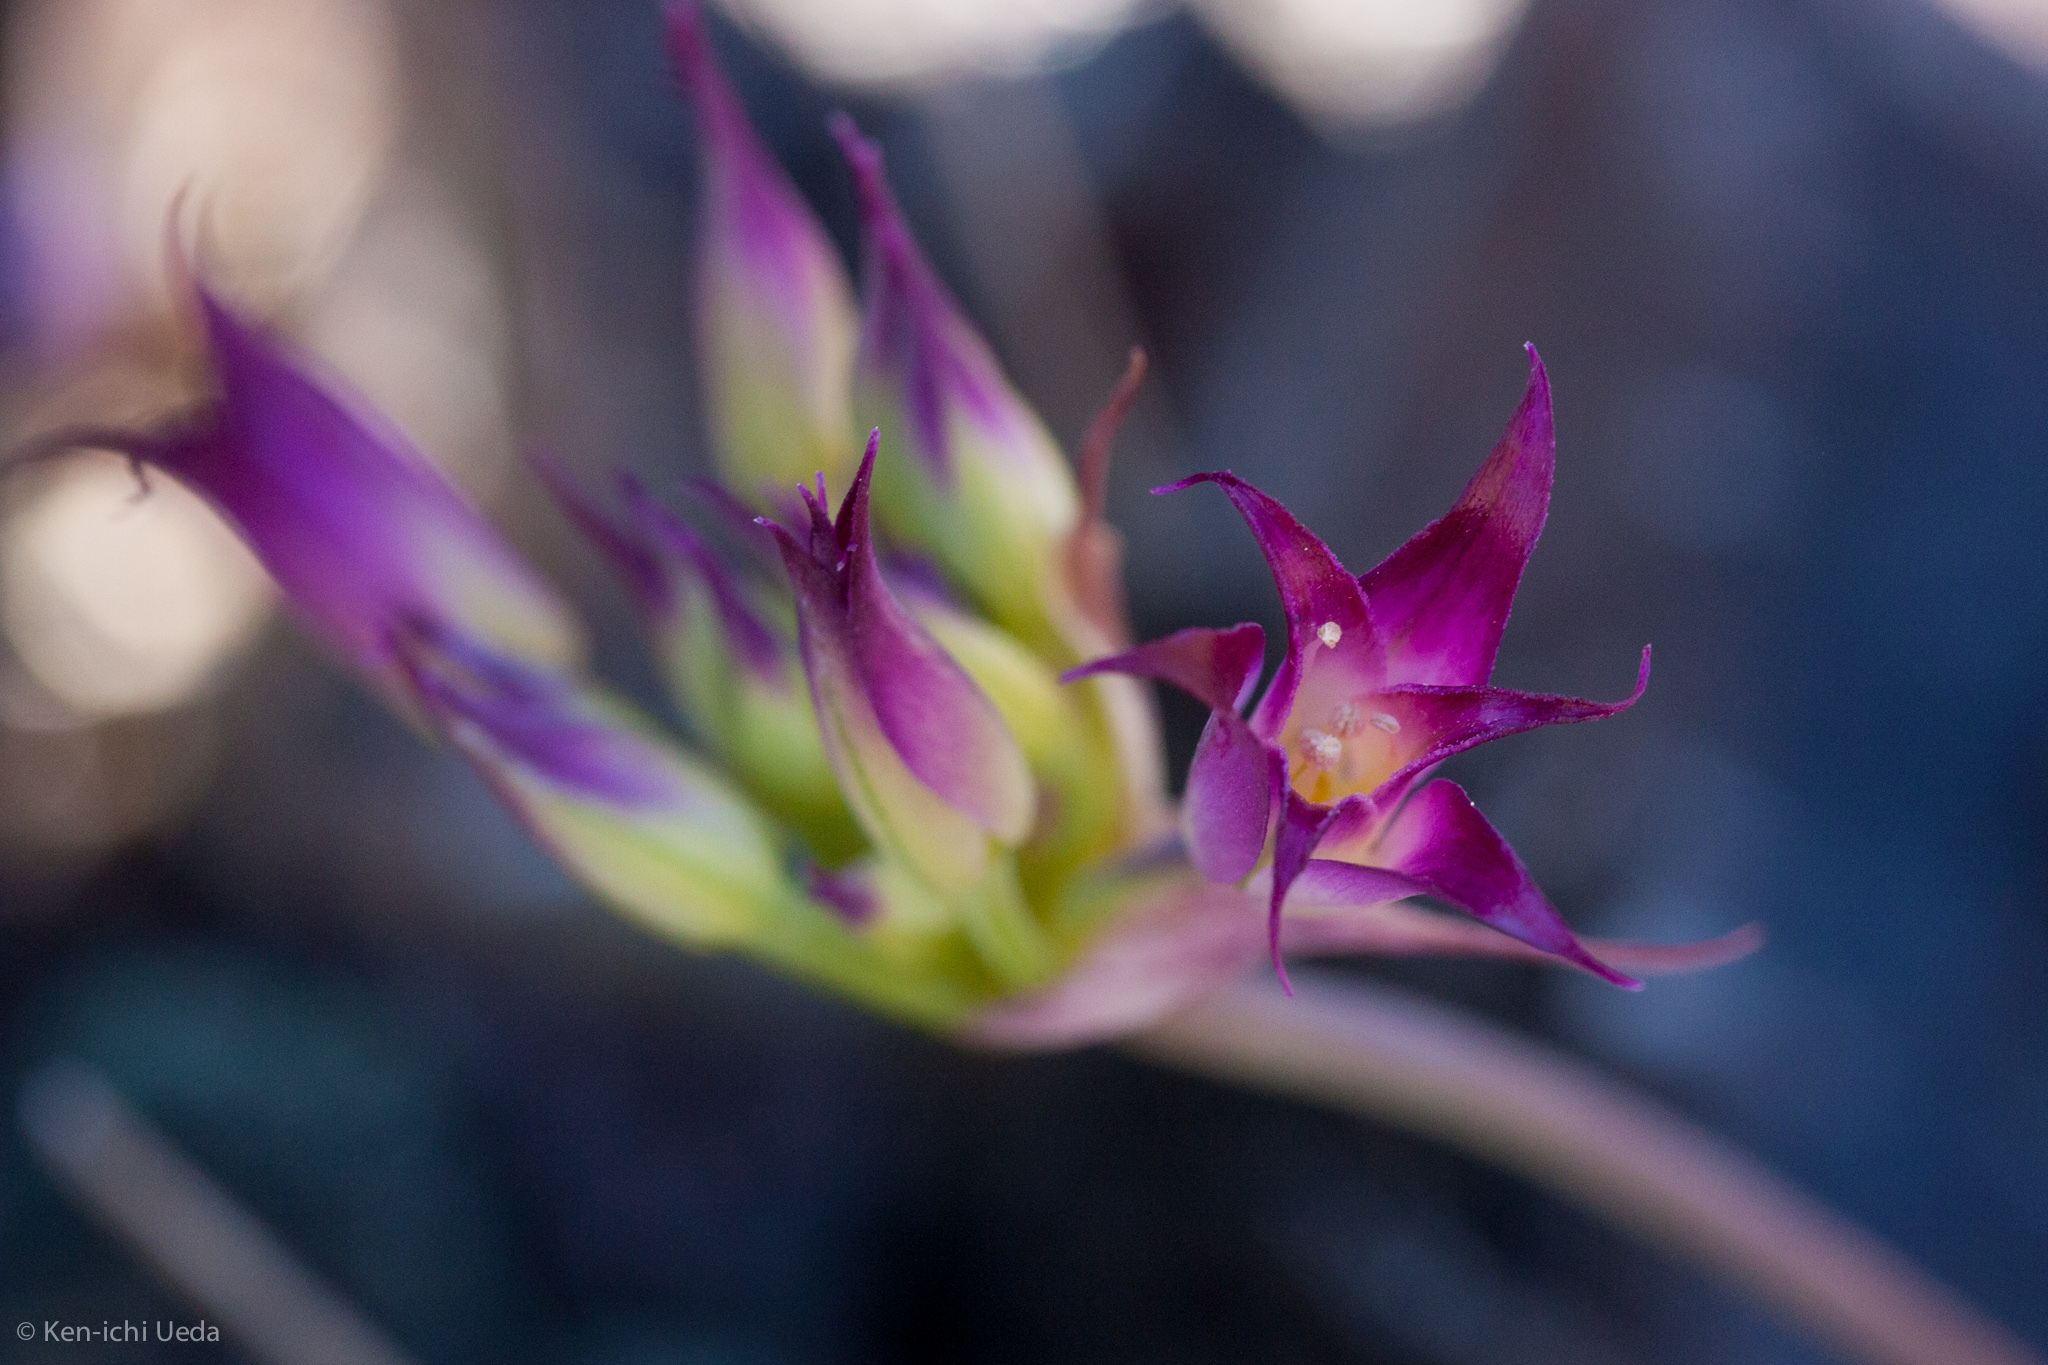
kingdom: Plantae
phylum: Tracheophyta
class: Liliopsida
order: Asparagales
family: Amaryllidaceae
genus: Allium
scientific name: Allium acuminatum
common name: Hooker's onion
